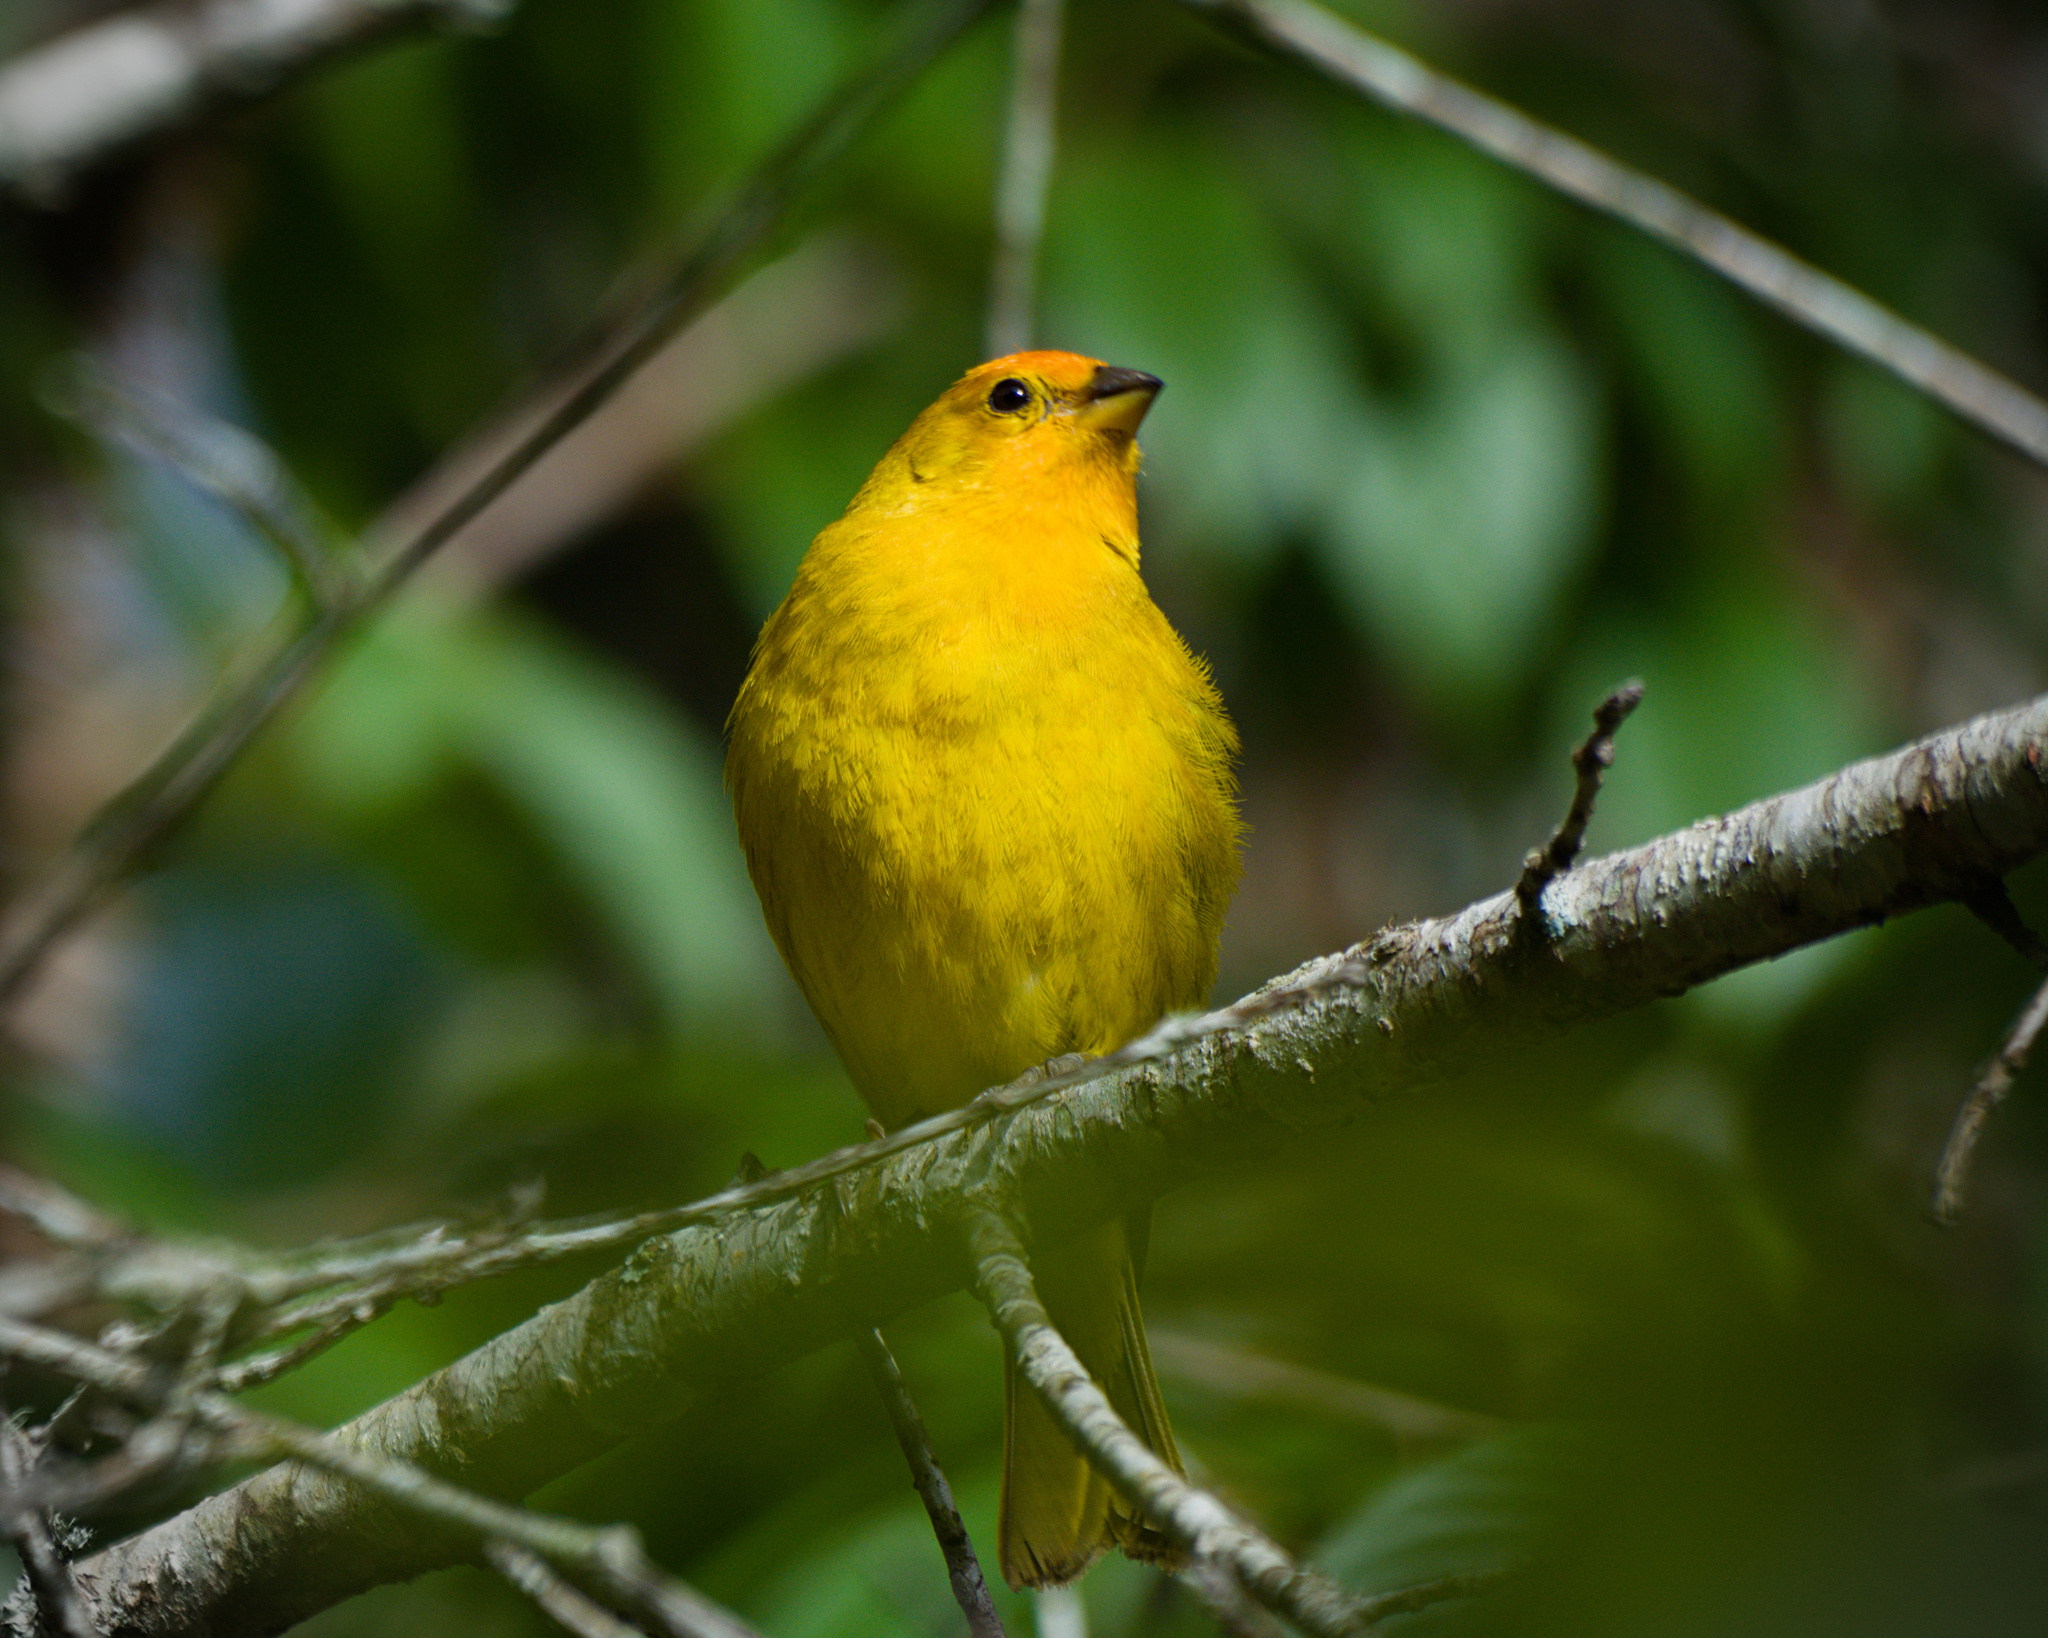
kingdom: Animalia
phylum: Chordata
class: Aves
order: Passeriformes
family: Thraupidae
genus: Sicalis
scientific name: Sicalis flaveola
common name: Saffron finch
